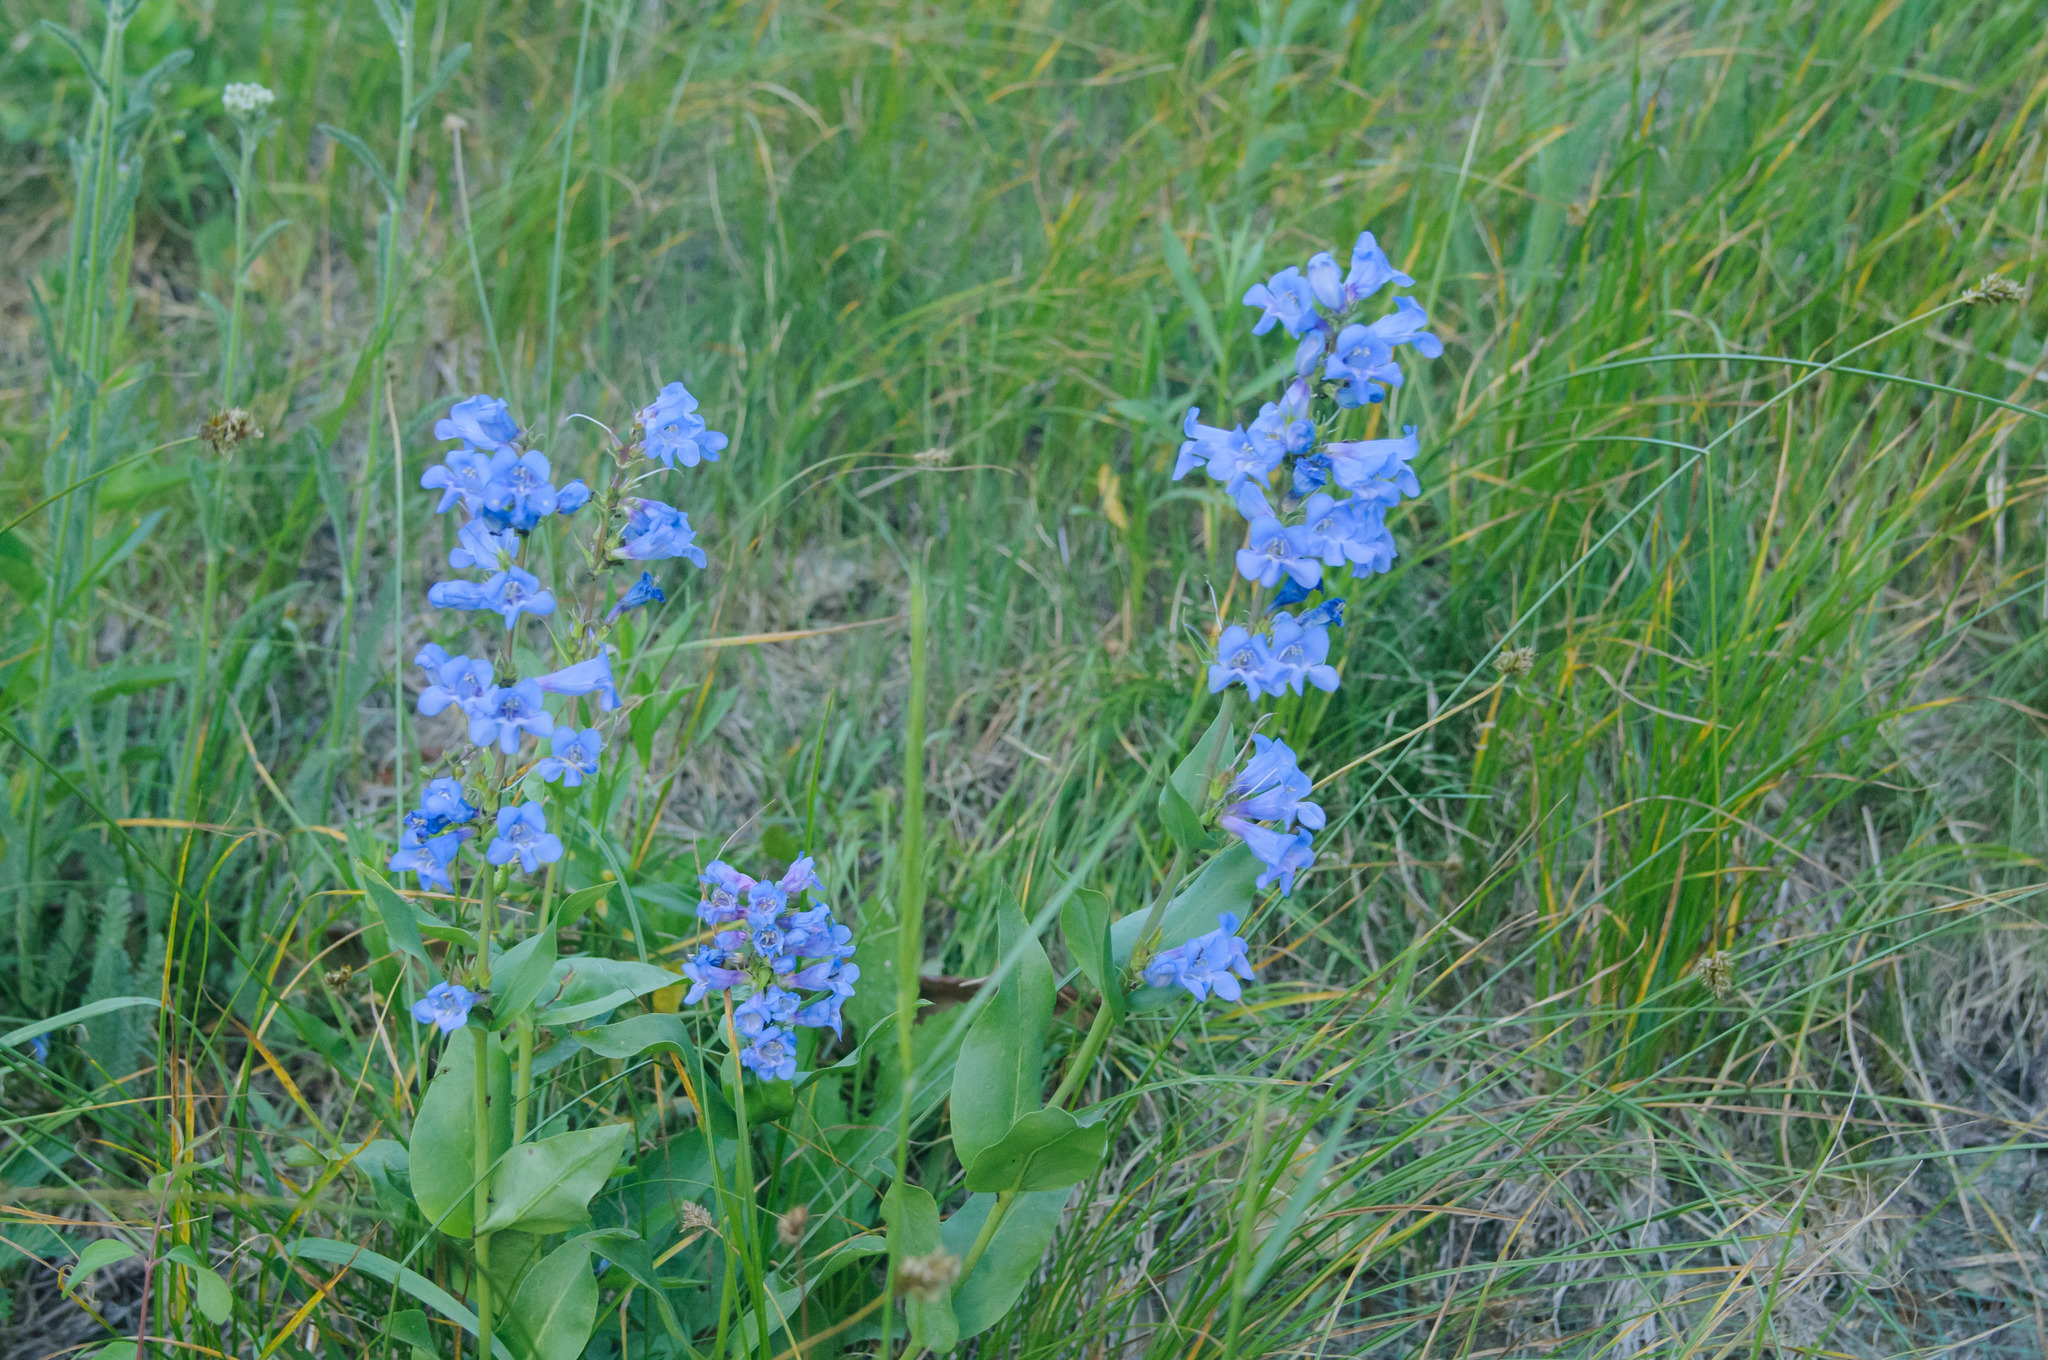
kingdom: Plantae
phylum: Tracheophyta
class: Magnoliopsida
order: Lamiales
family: Plantaginaceae
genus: Penstemon
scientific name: Penstemon cyananthus
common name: Wasatch penstemon
